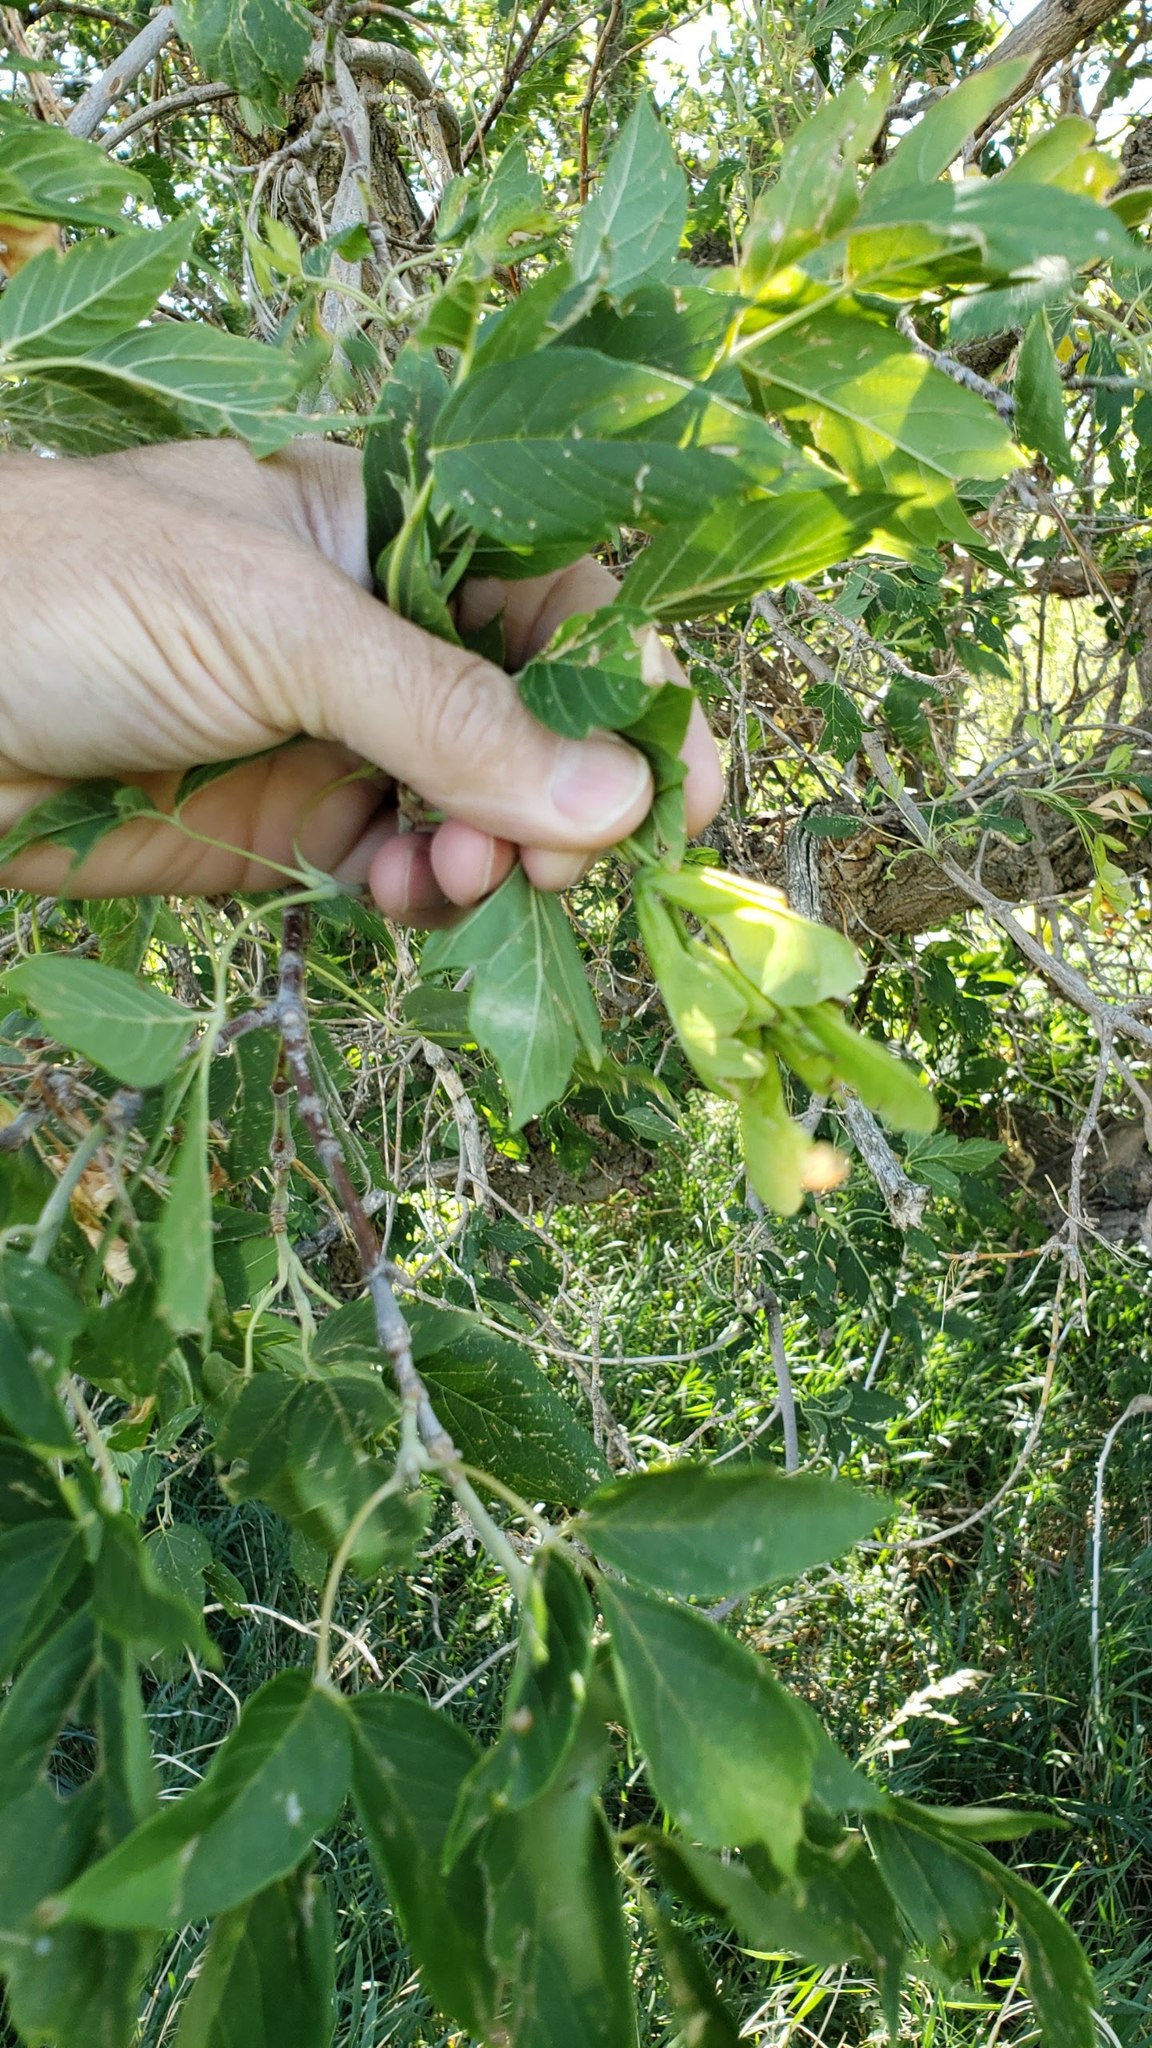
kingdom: Plantae
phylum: Tracheophyta
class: Magnoliopsida
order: Sapindales
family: Sapindaceae
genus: Acer
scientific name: Acer negundo
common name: Ashleaf maple
